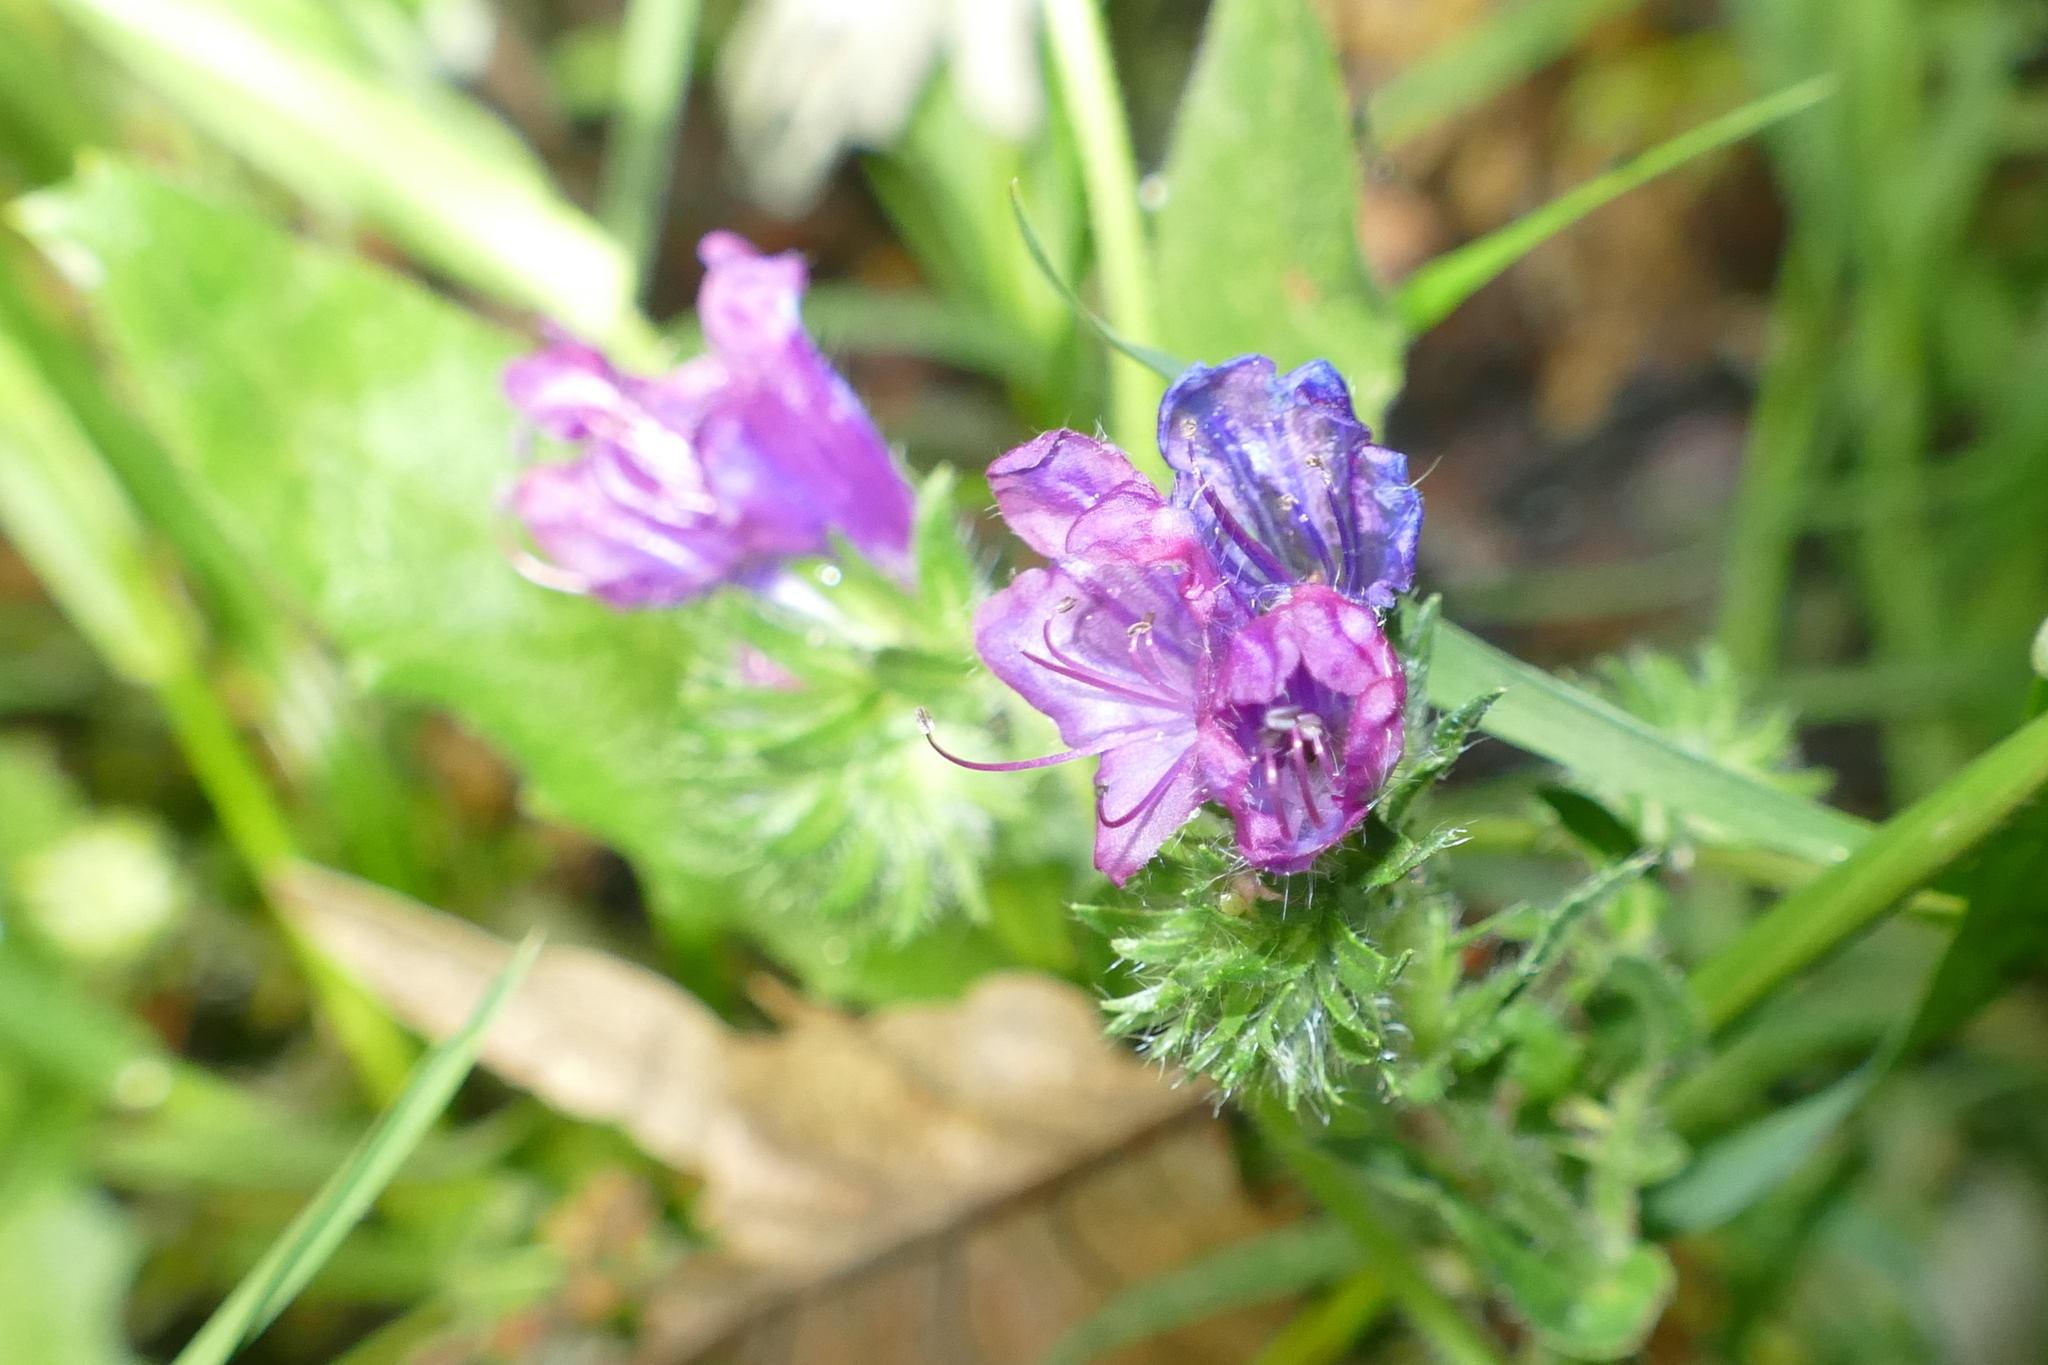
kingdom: Plantae
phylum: Tracheophyta
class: Magnoliopsida
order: Boraginales
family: Boraginaceae
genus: Echium
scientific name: Echium plantagineum
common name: Purple viper's-bugloss
